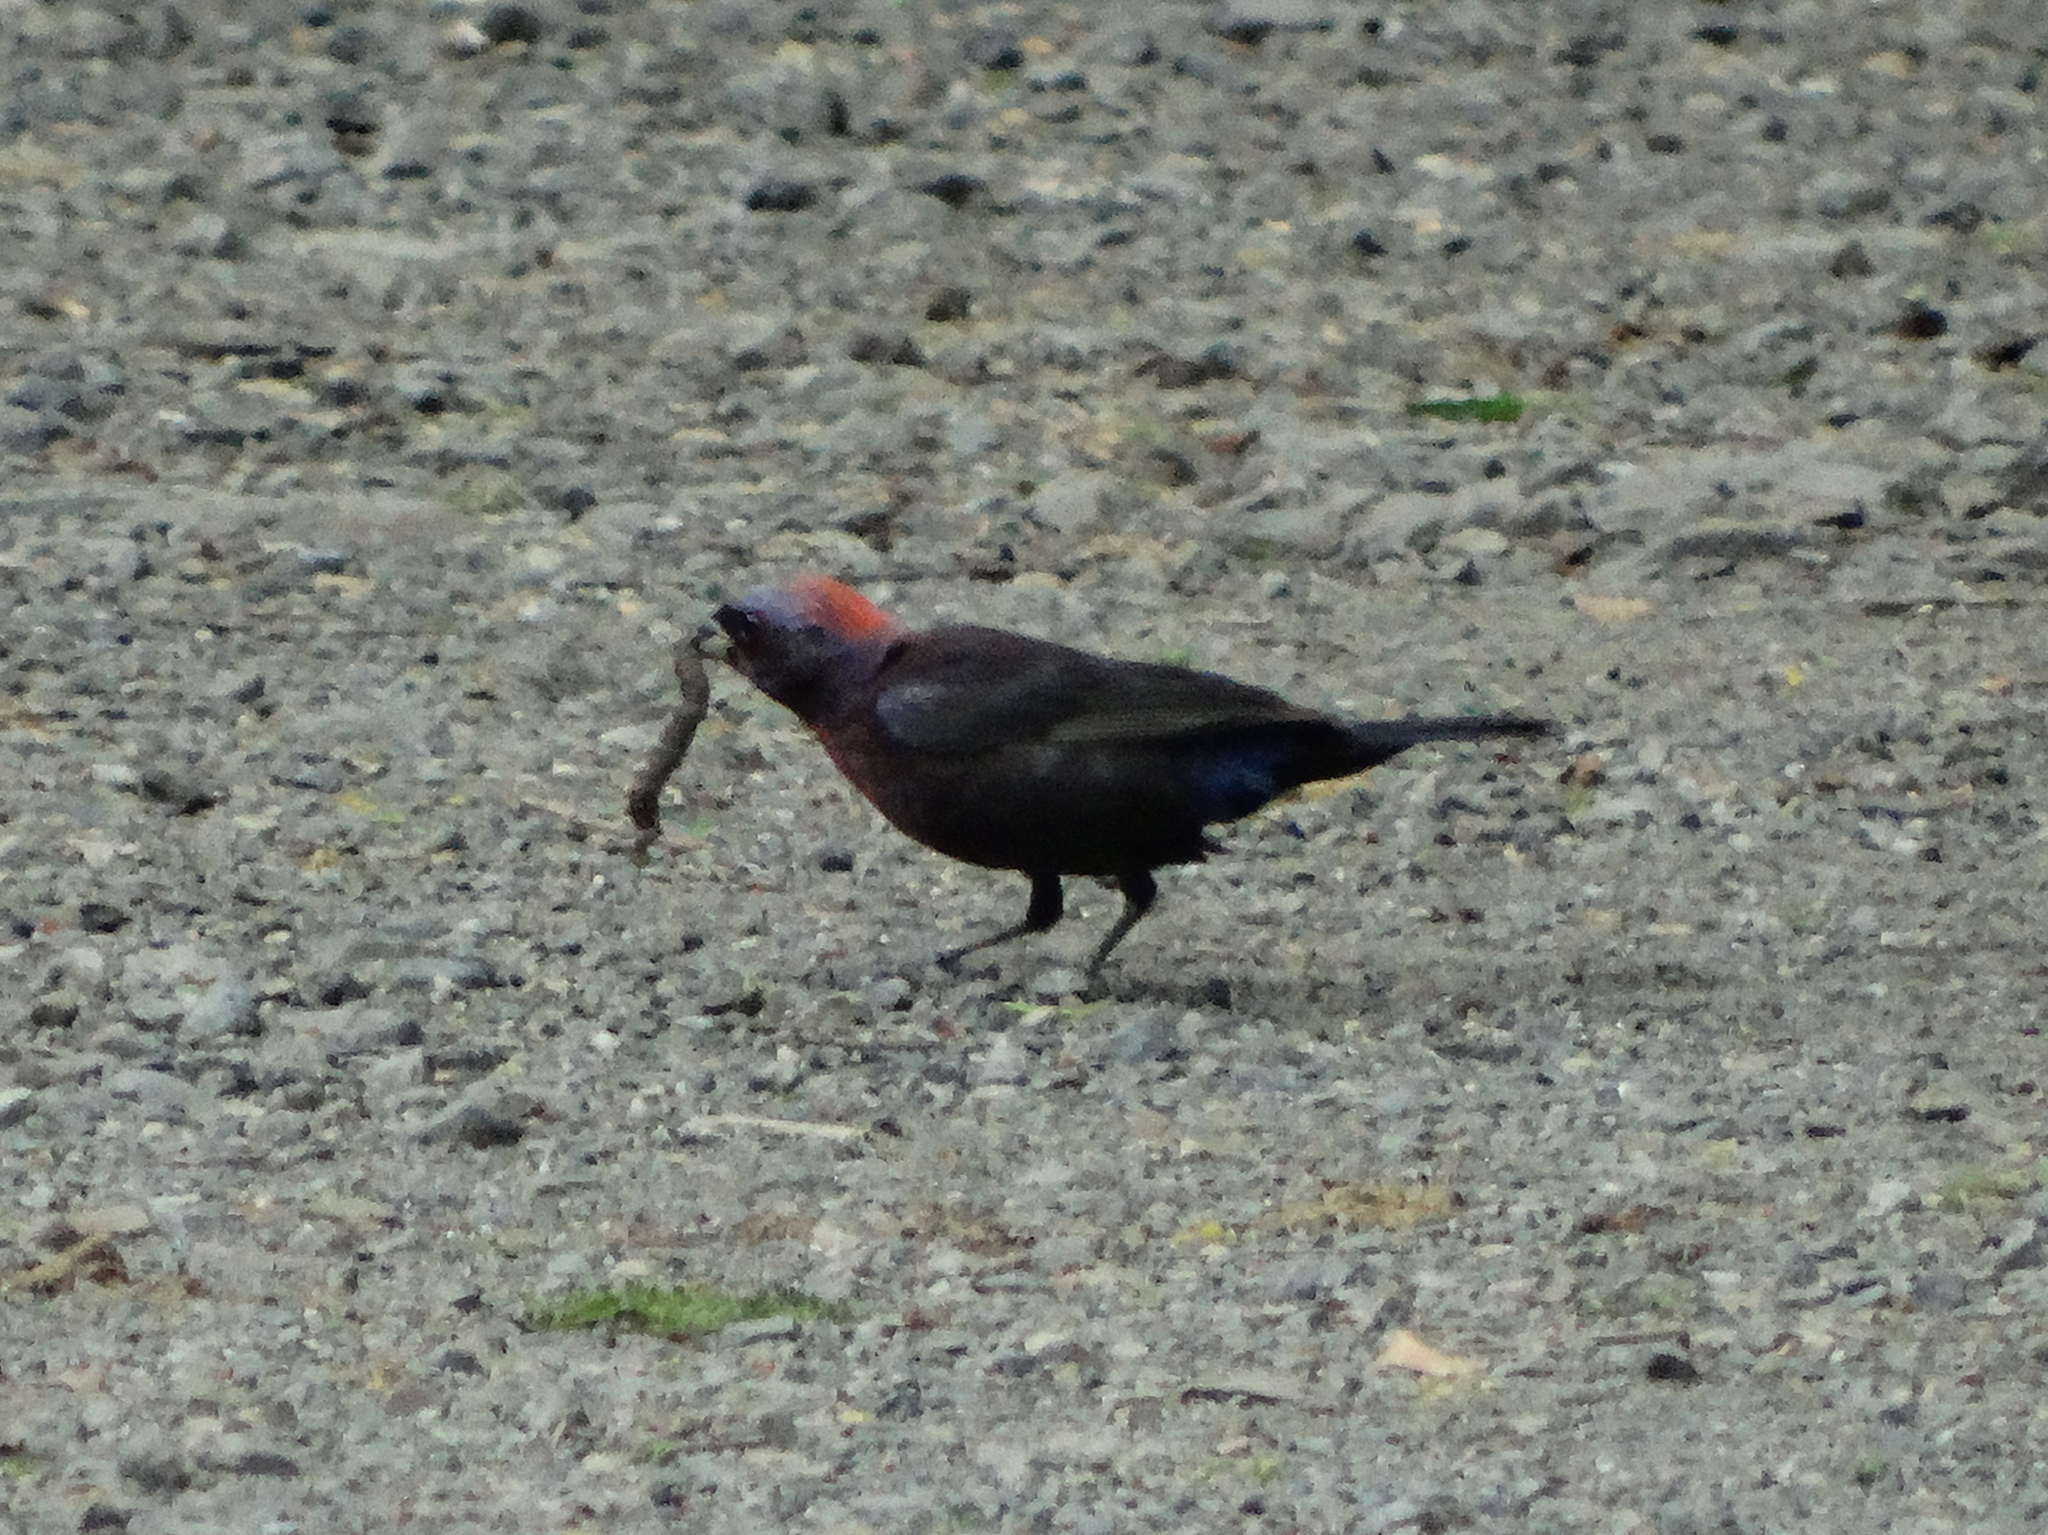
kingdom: Animalia
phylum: Chordata
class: Aves
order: Passeriformes
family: Cardinalidae
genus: Passerina
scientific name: Passerina versicolor
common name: Varied bunting
